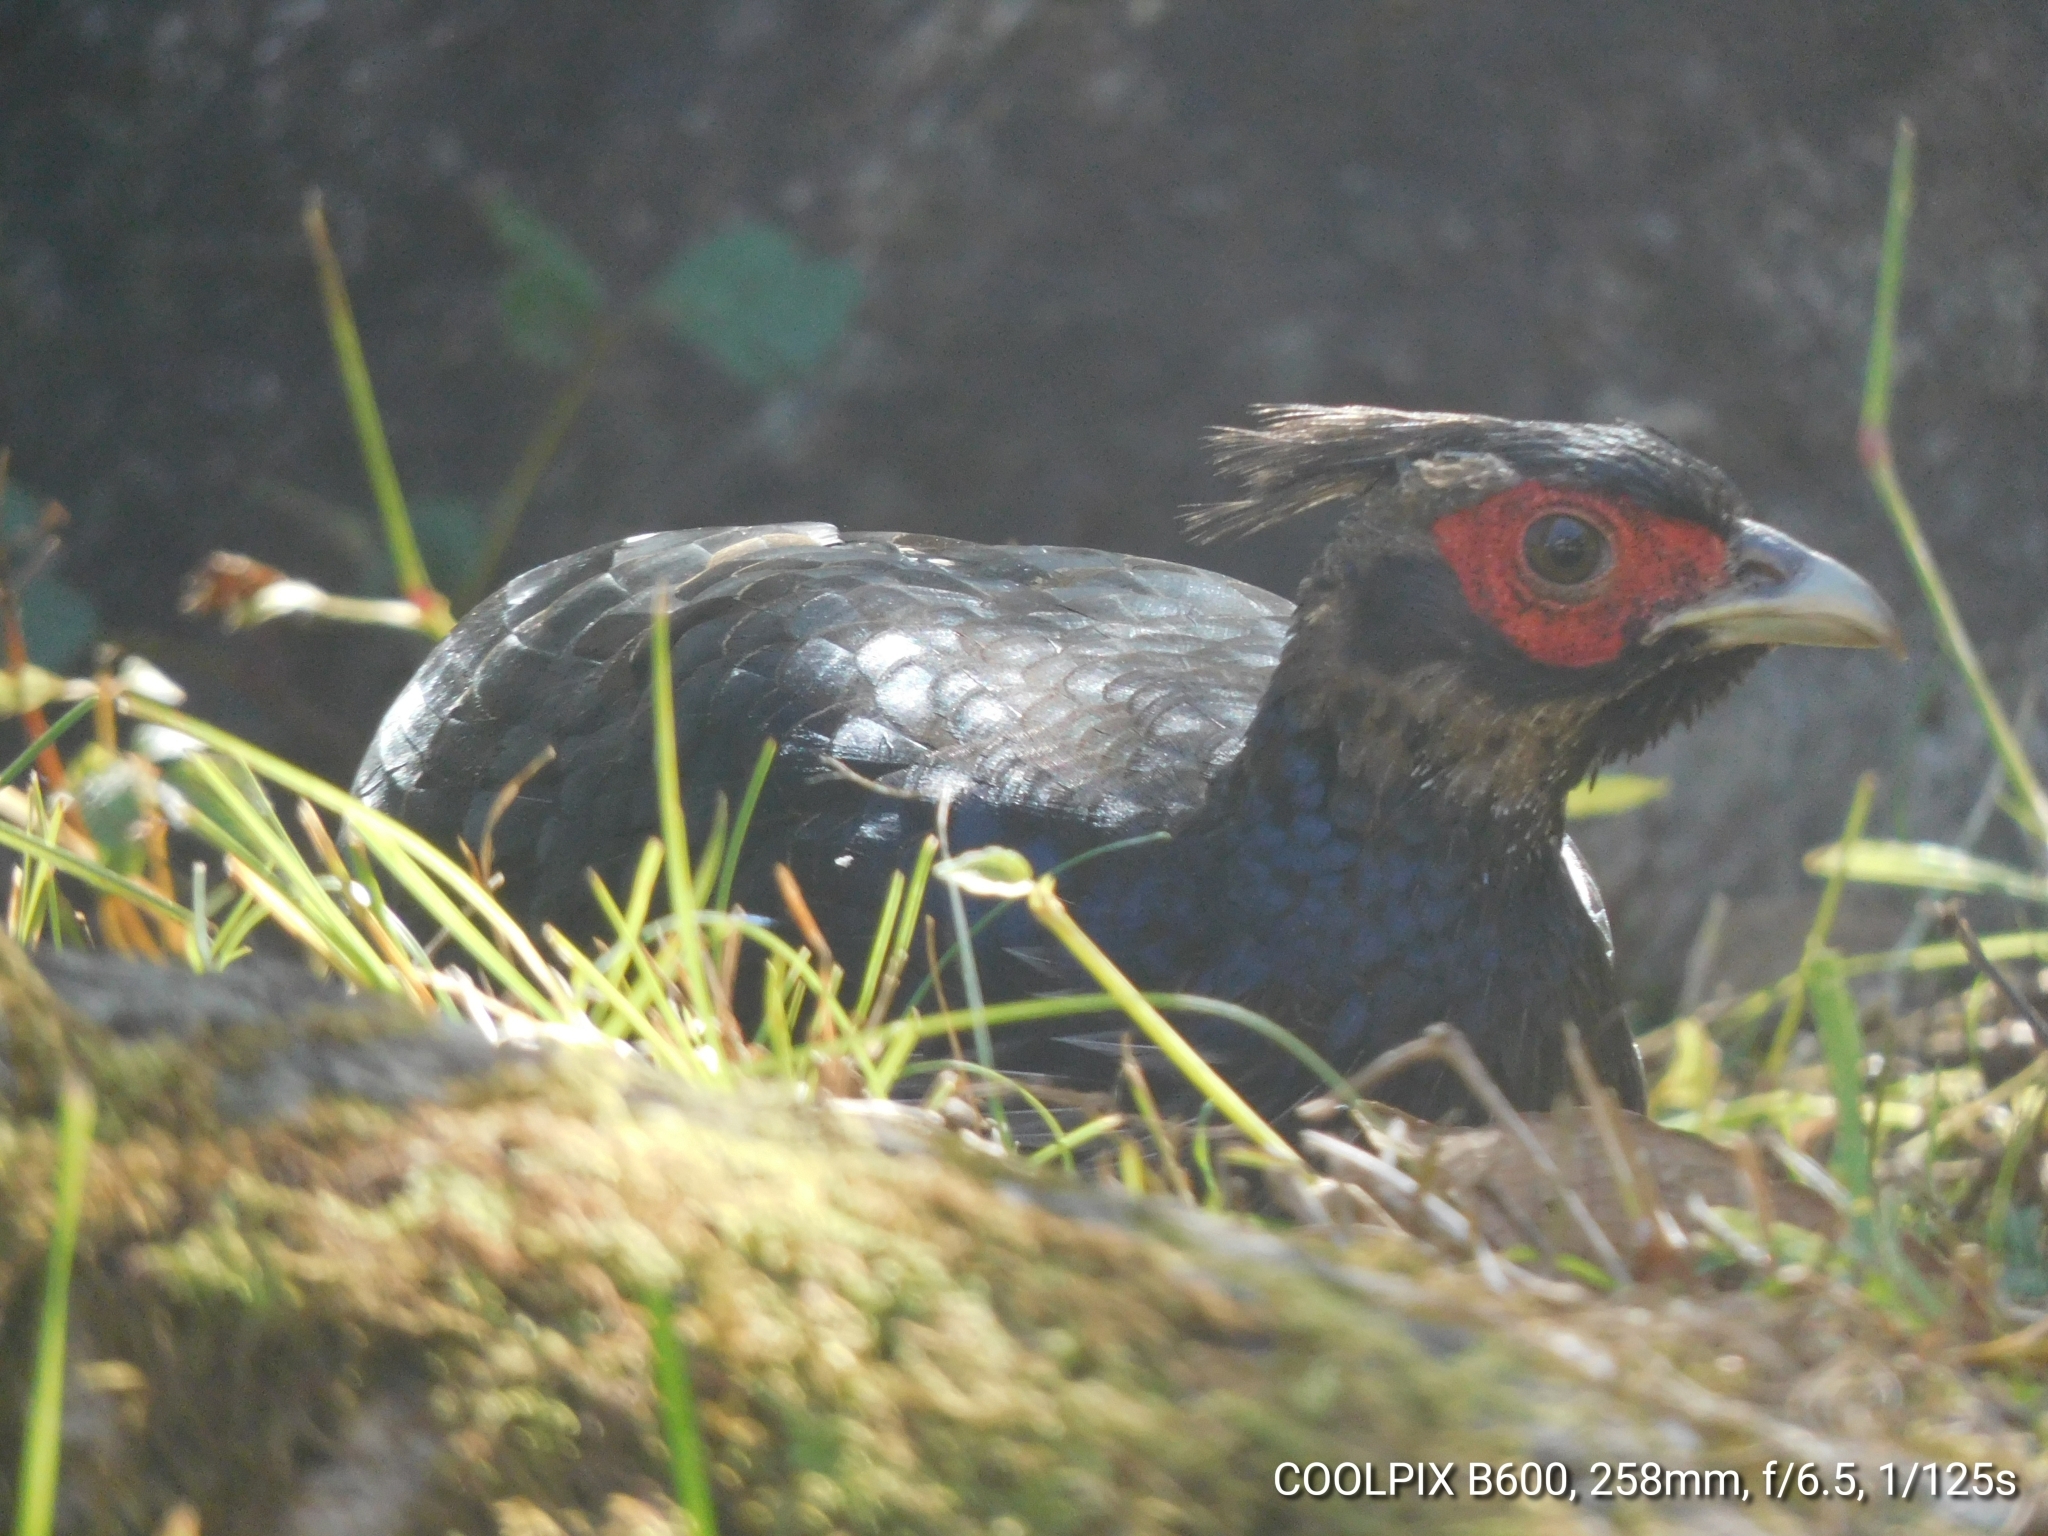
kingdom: Animalia
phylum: Chordata
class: Aves
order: Galliformes
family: Phasianidae
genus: Lophura
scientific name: Lophura leucomelanos
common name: Kalij pheasant
